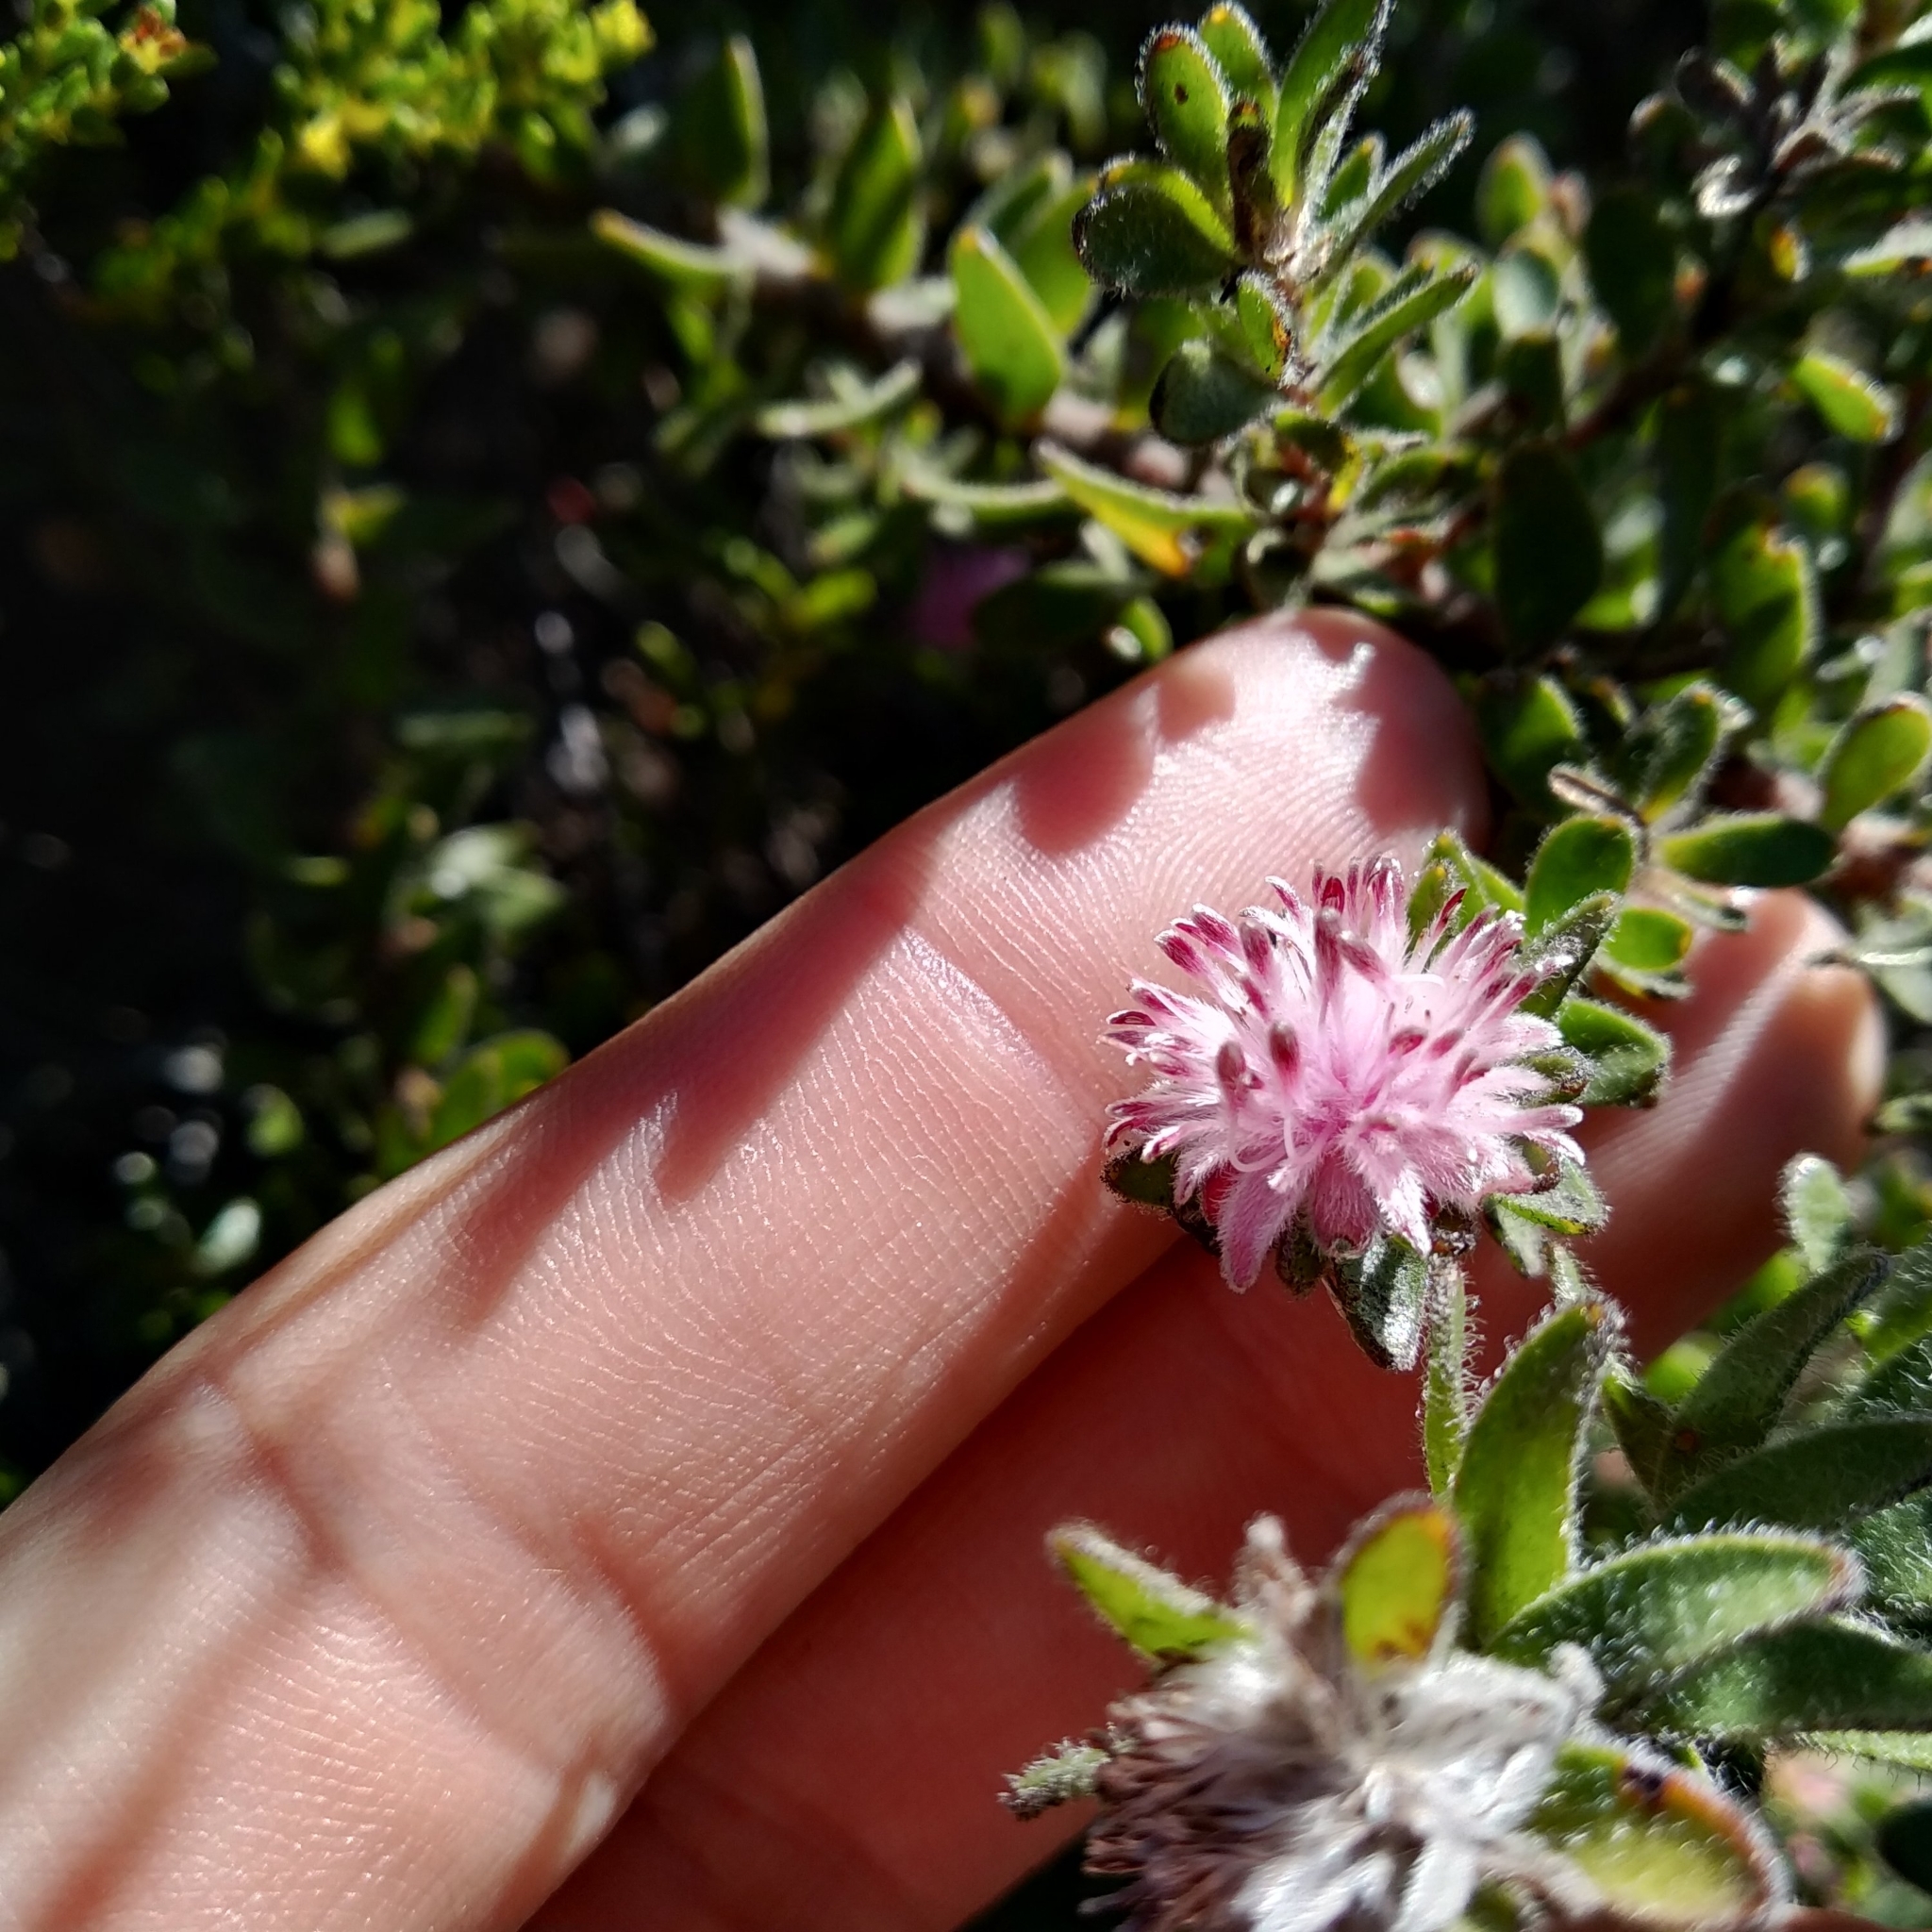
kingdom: Plantae
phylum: Tracheophyta
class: Magnoliopsida
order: Proteales
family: Proteaceae
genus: Diastella
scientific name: Diastella divaricata
